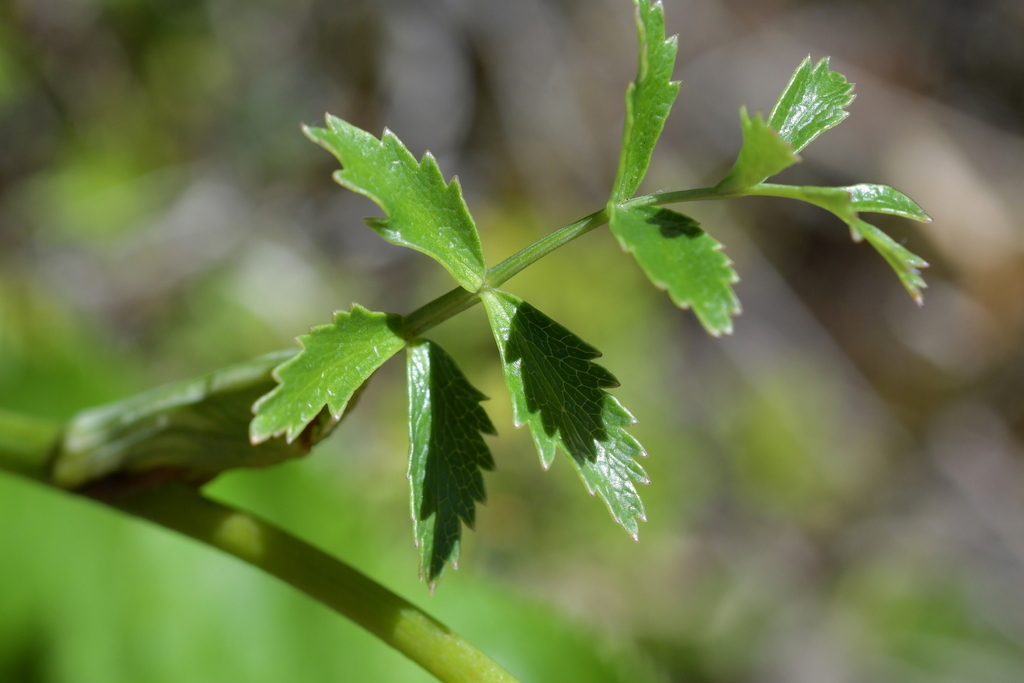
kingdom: Plantae
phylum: Tracheophyta
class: Magnoliopsida
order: Apiales
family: Apiaceae
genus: Gingidia
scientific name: Gingidia montana
